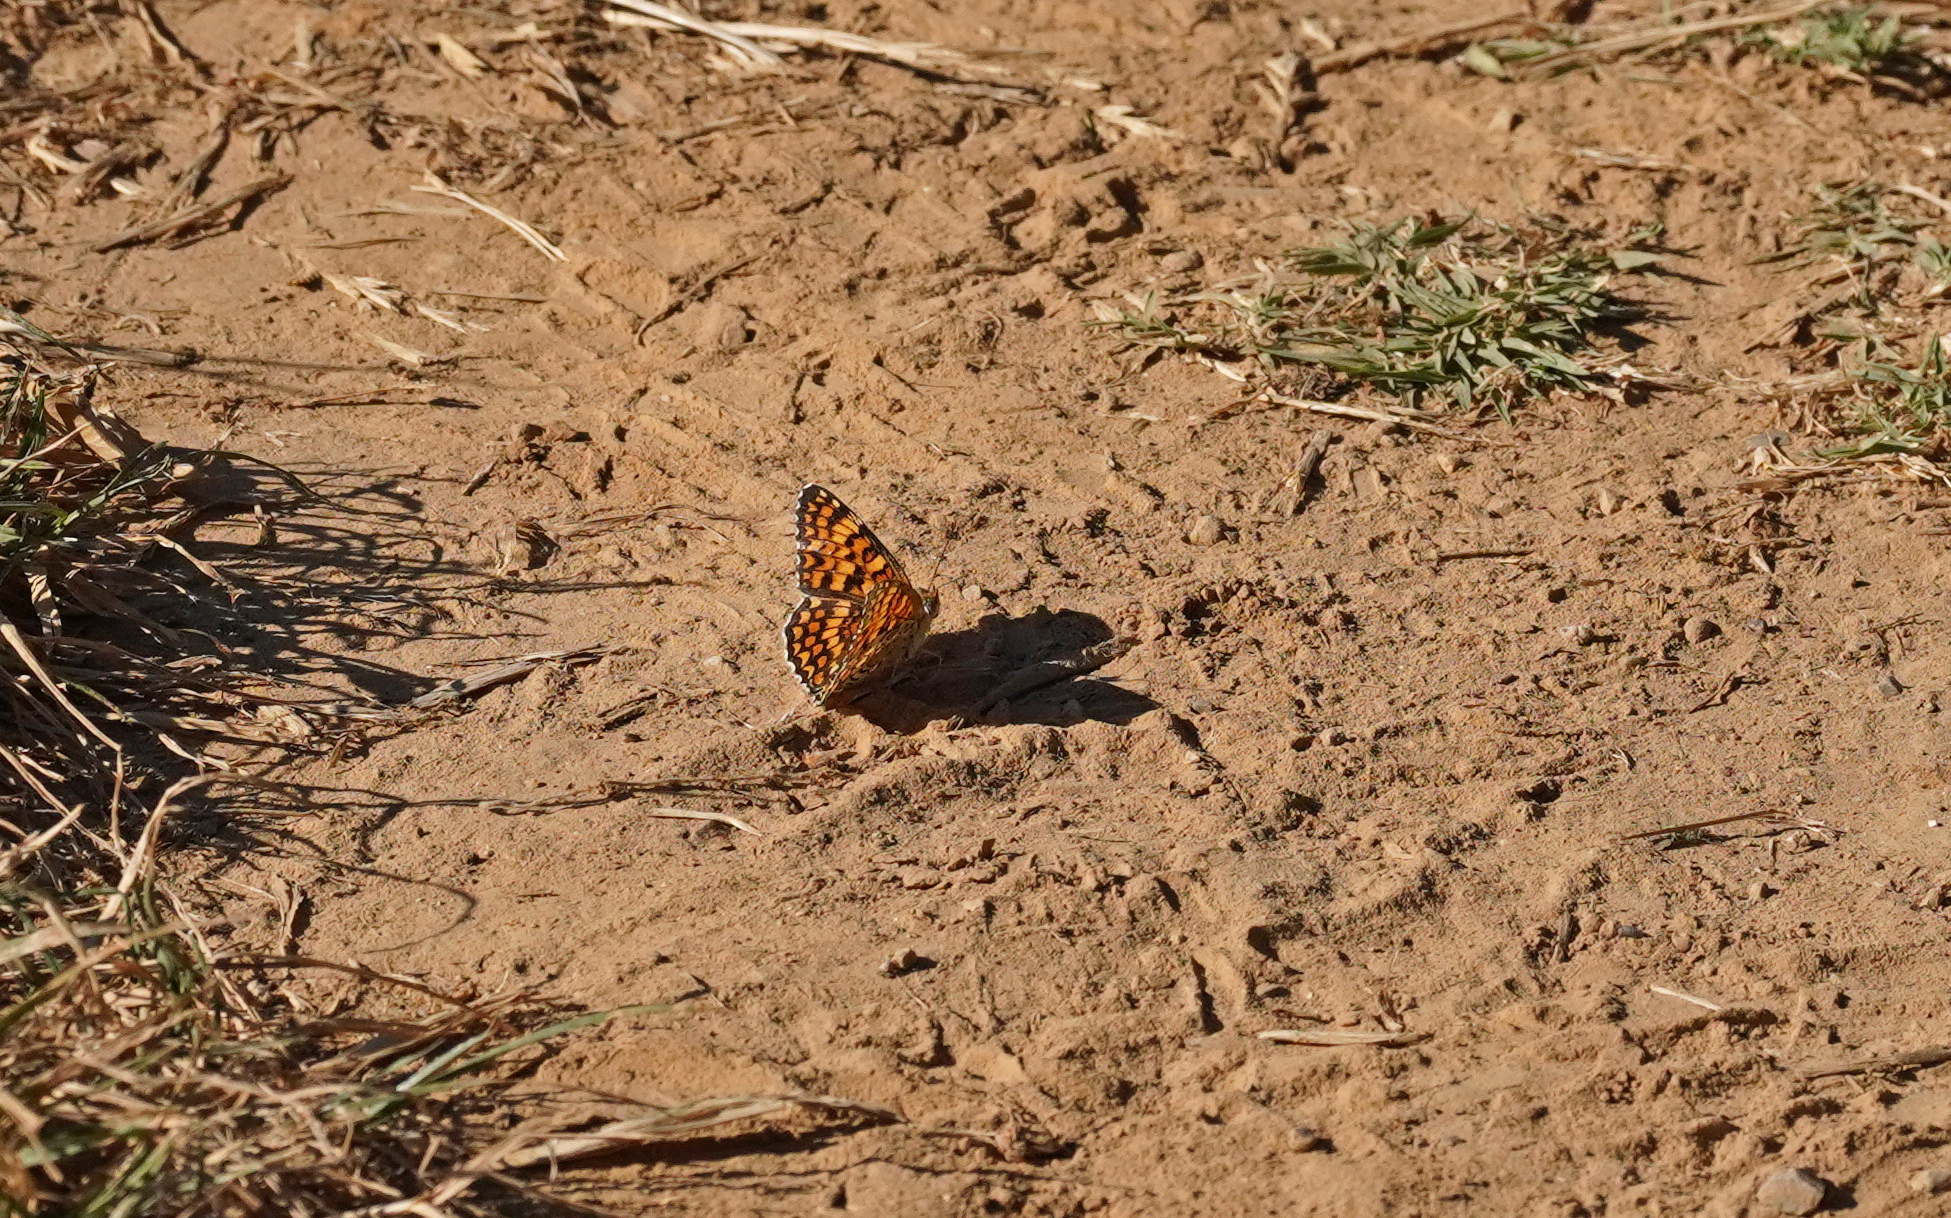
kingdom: Animalia
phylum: Arthropoda
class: Insecta
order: Lepidoptera
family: Nymphalidae
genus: Melitaea
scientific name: Melitaea phoebe
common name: Knapweed fritillary
